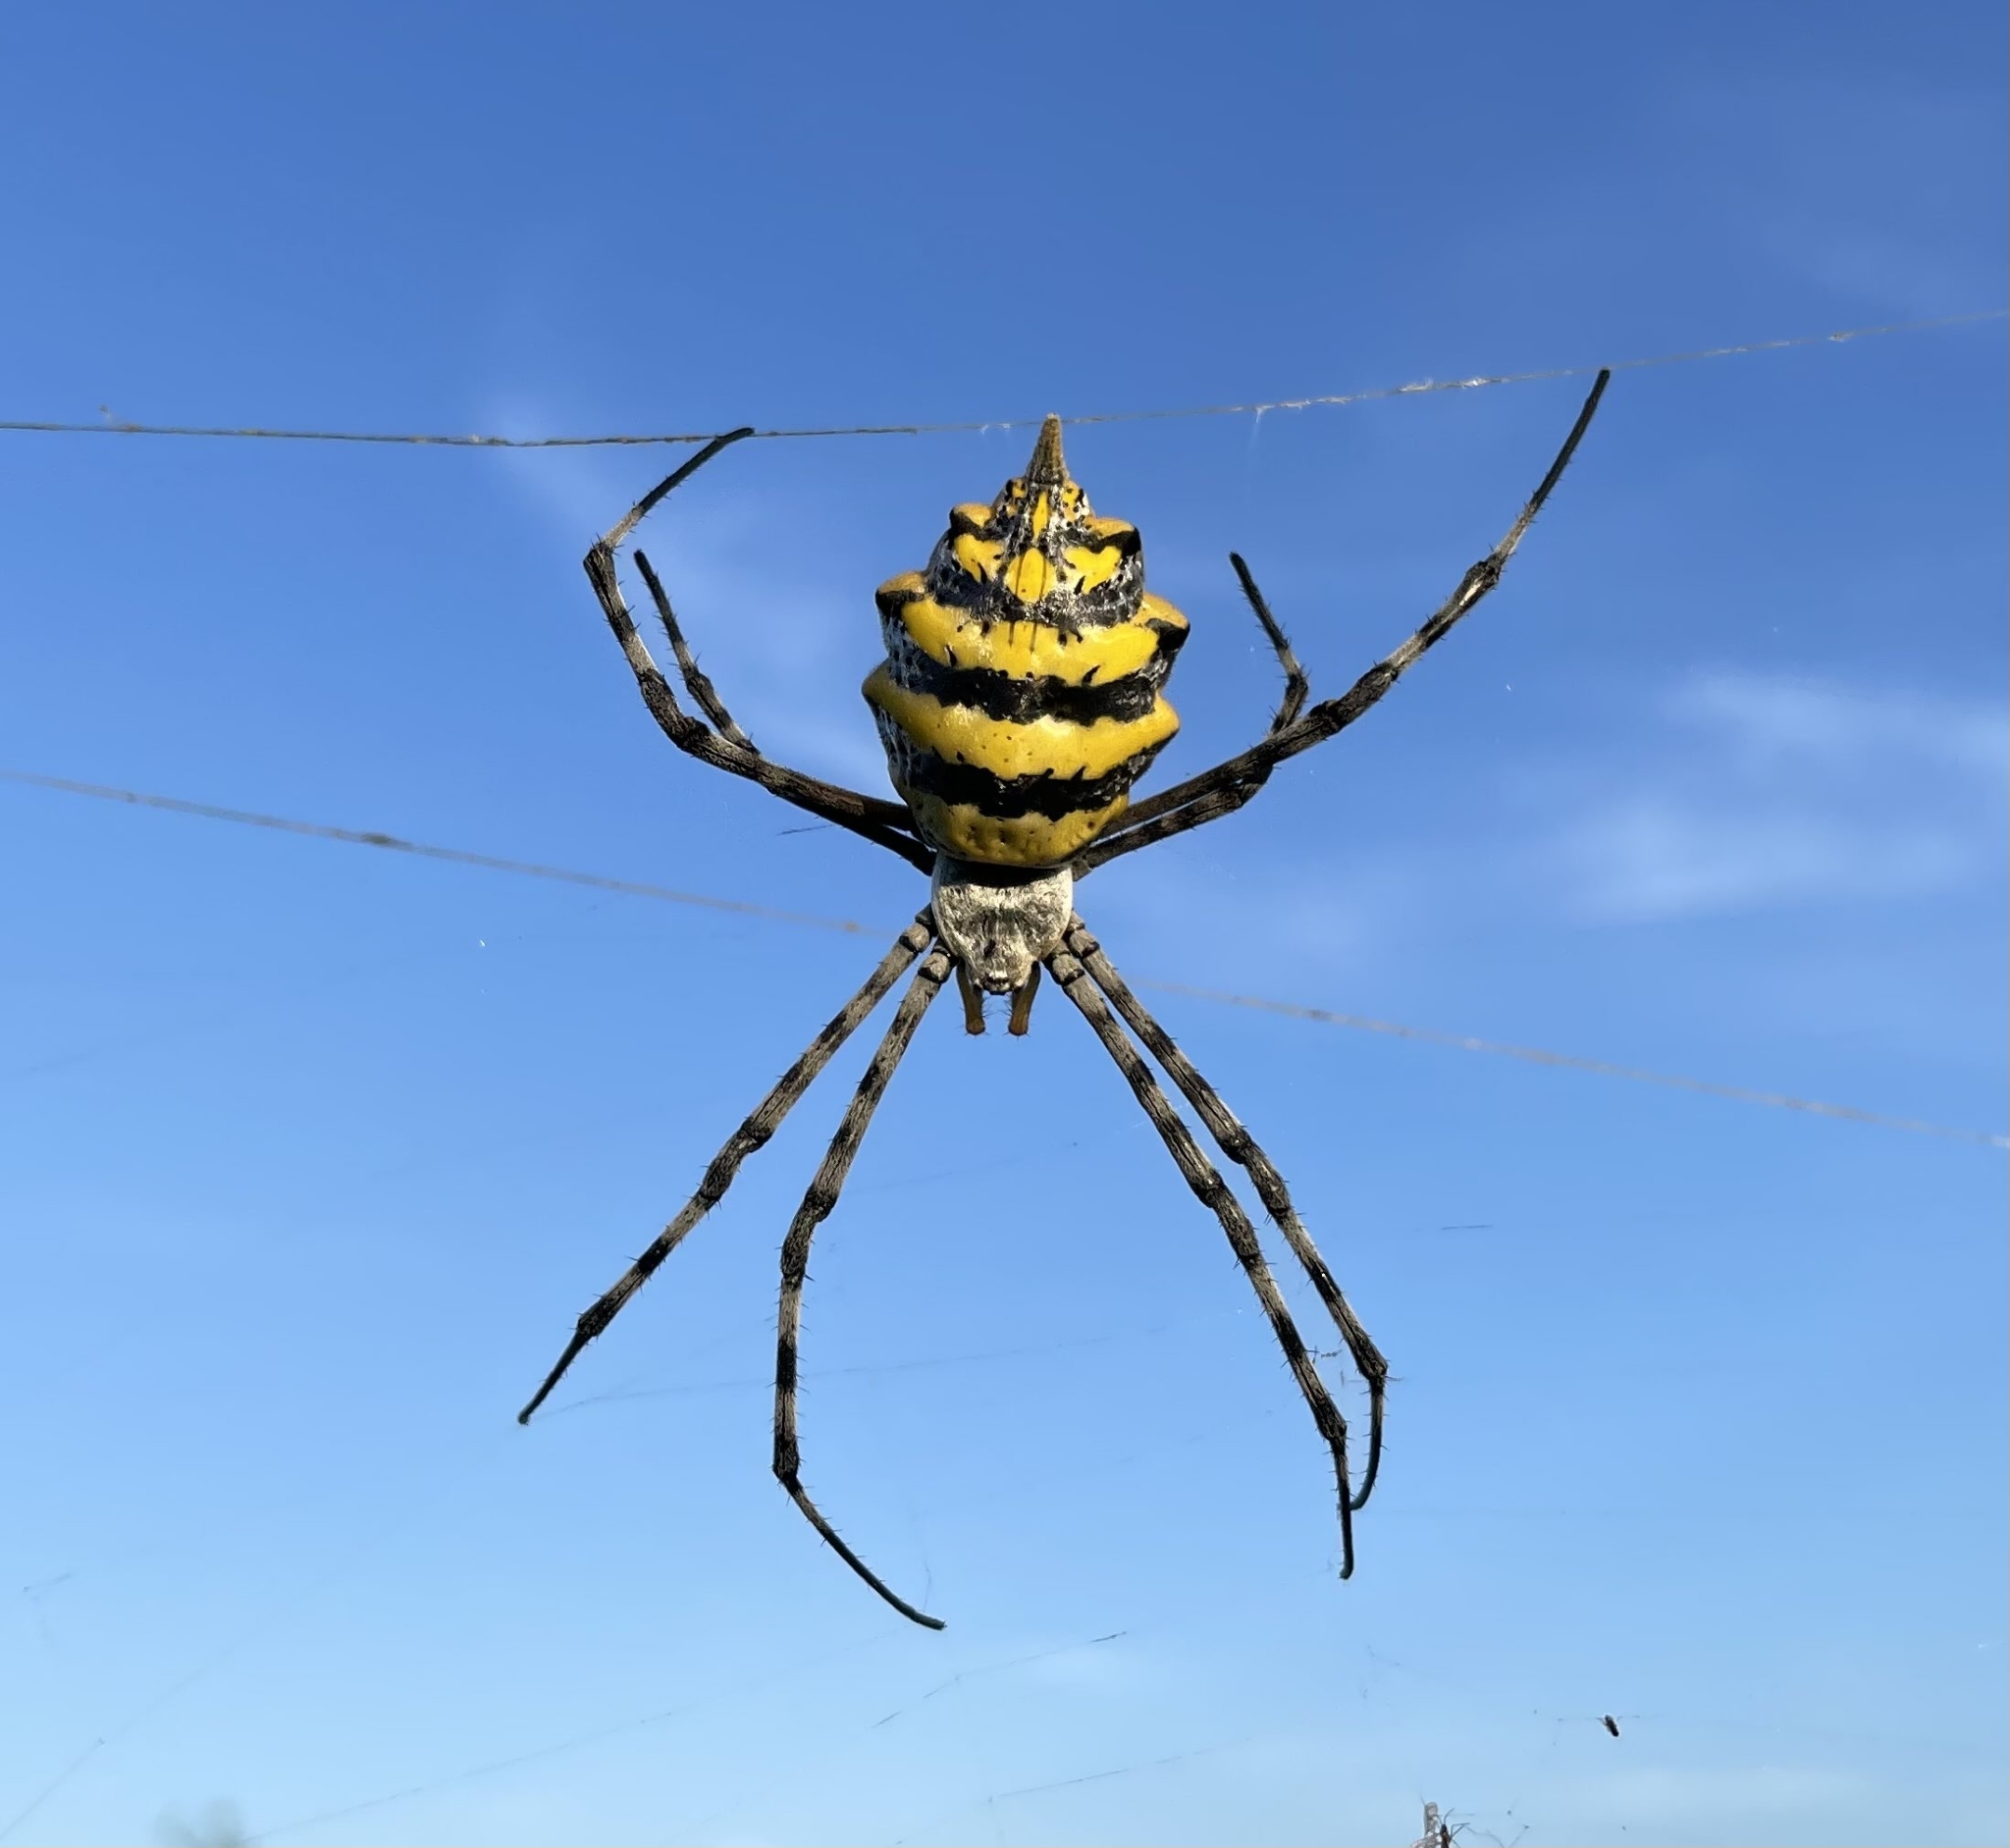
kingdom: Animalia
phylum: Arthropoda
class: Arachnida
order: Araneae
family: Araneidae
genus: Argiope
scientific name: Argiope australis
